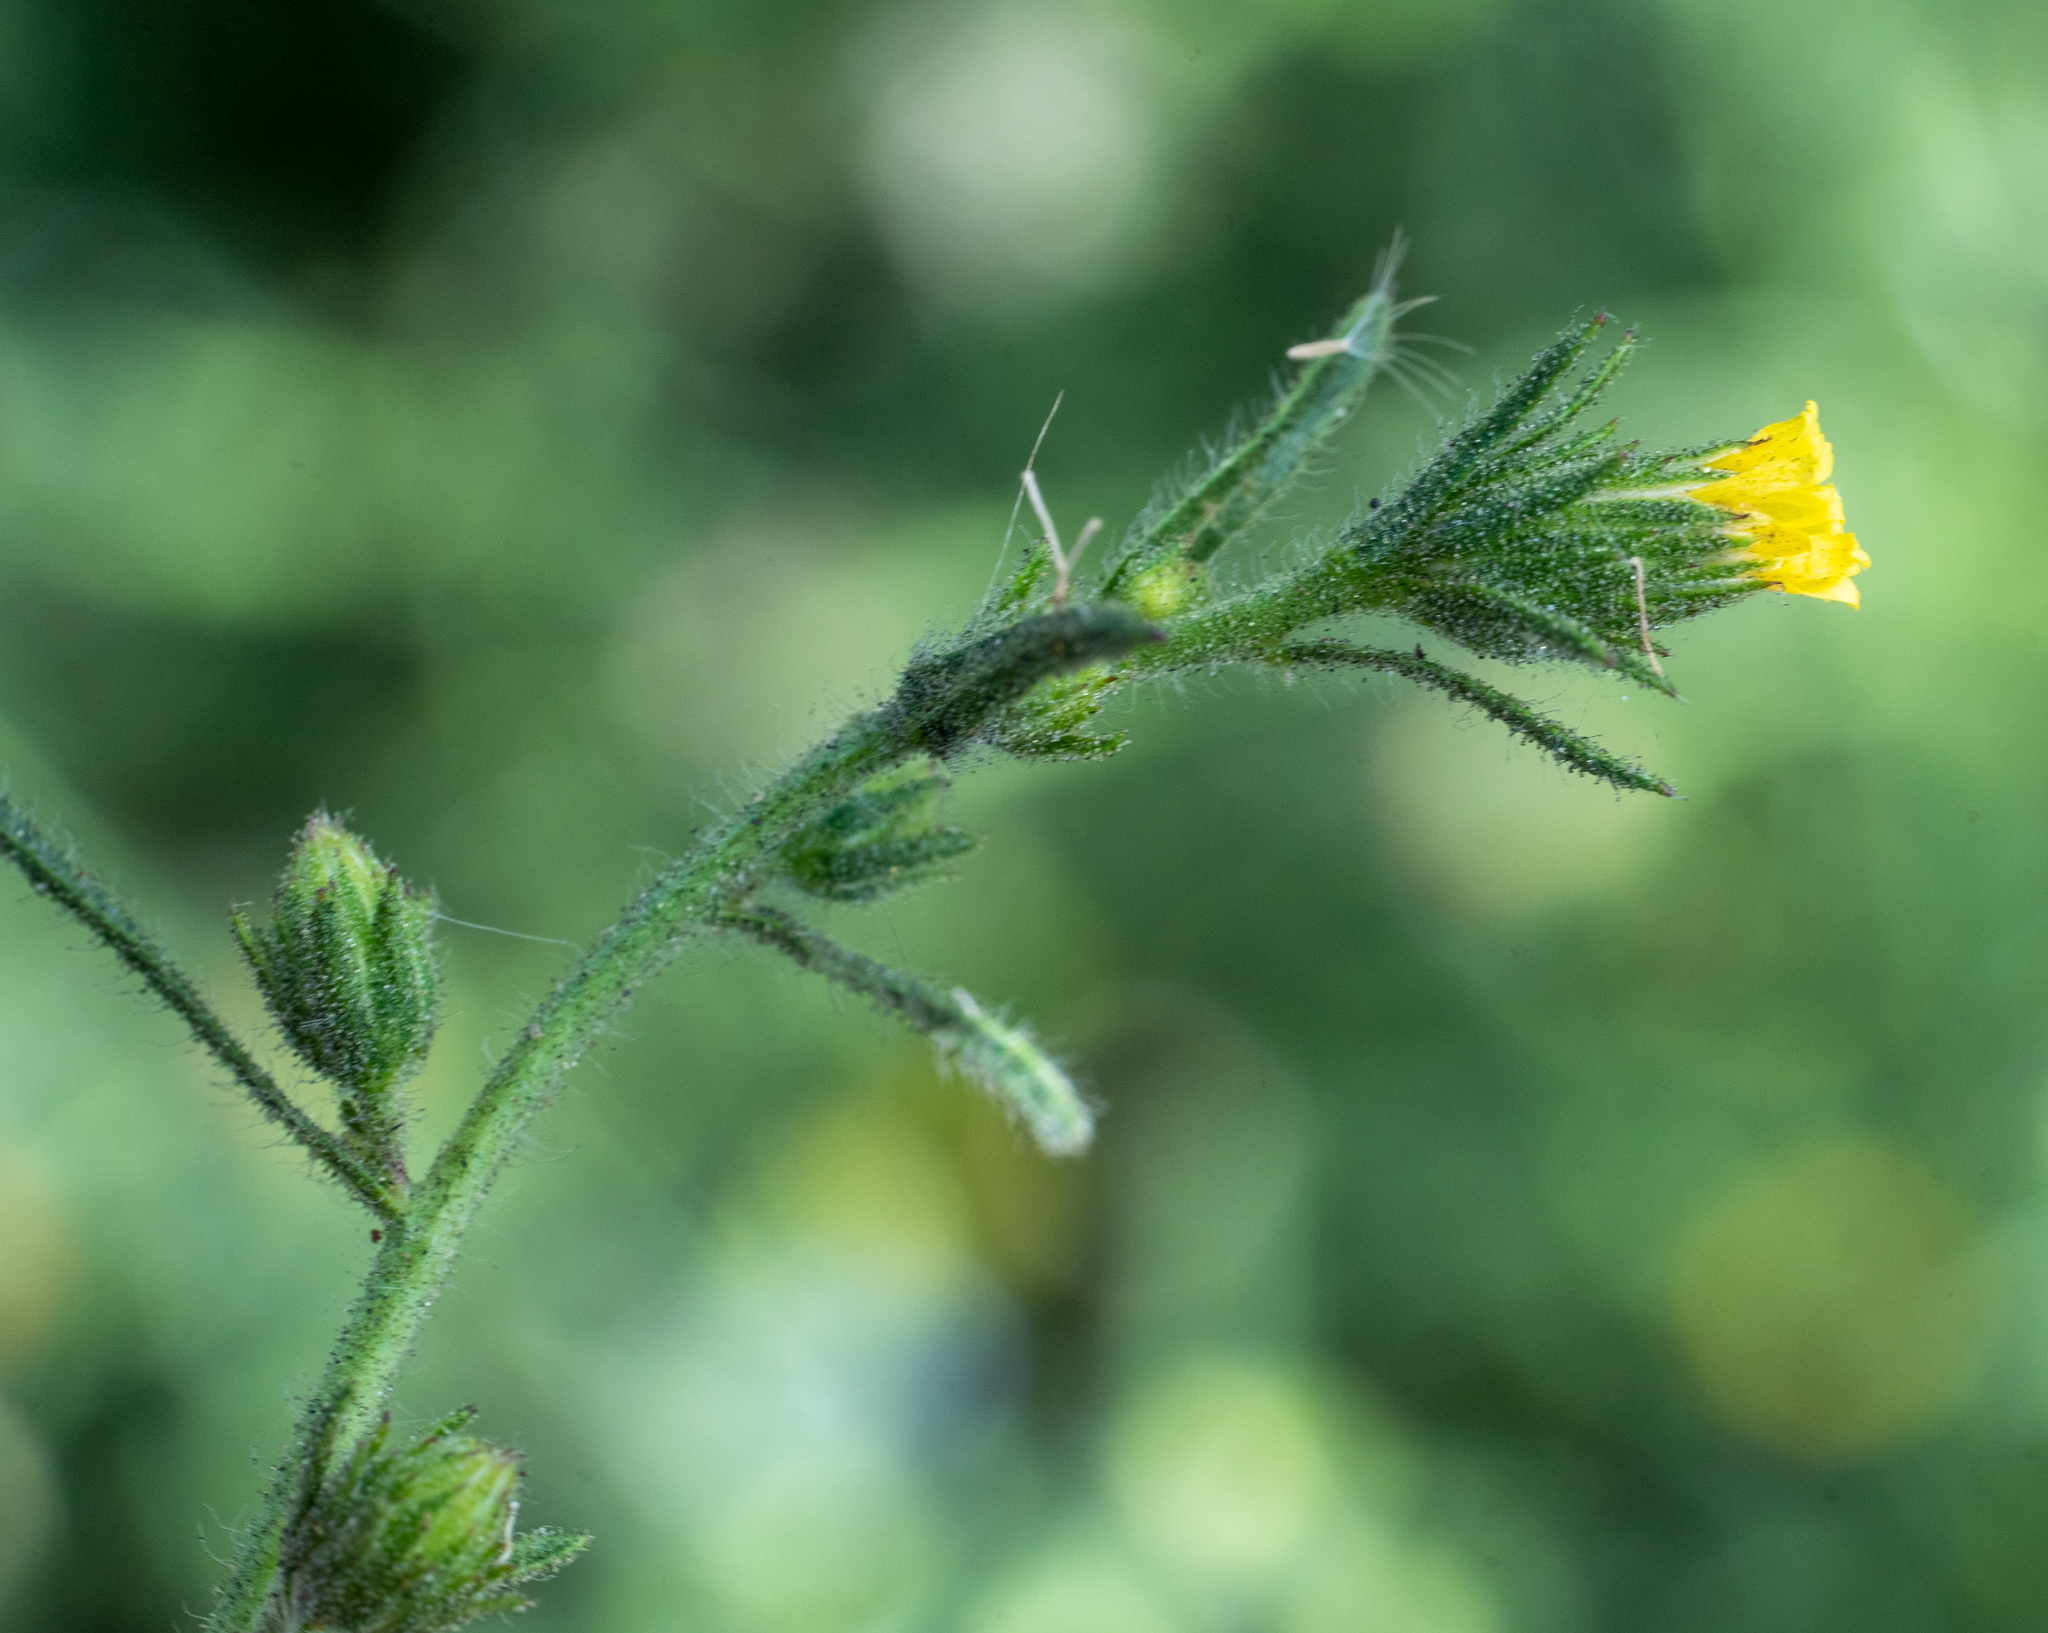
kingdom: Plantae
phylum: Tracheophyta
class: Magnoliopsida
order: Asterales
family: Asteraceae
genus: Dittrichia
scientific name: Dittrichia graveolens
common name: Stinking fleabane
